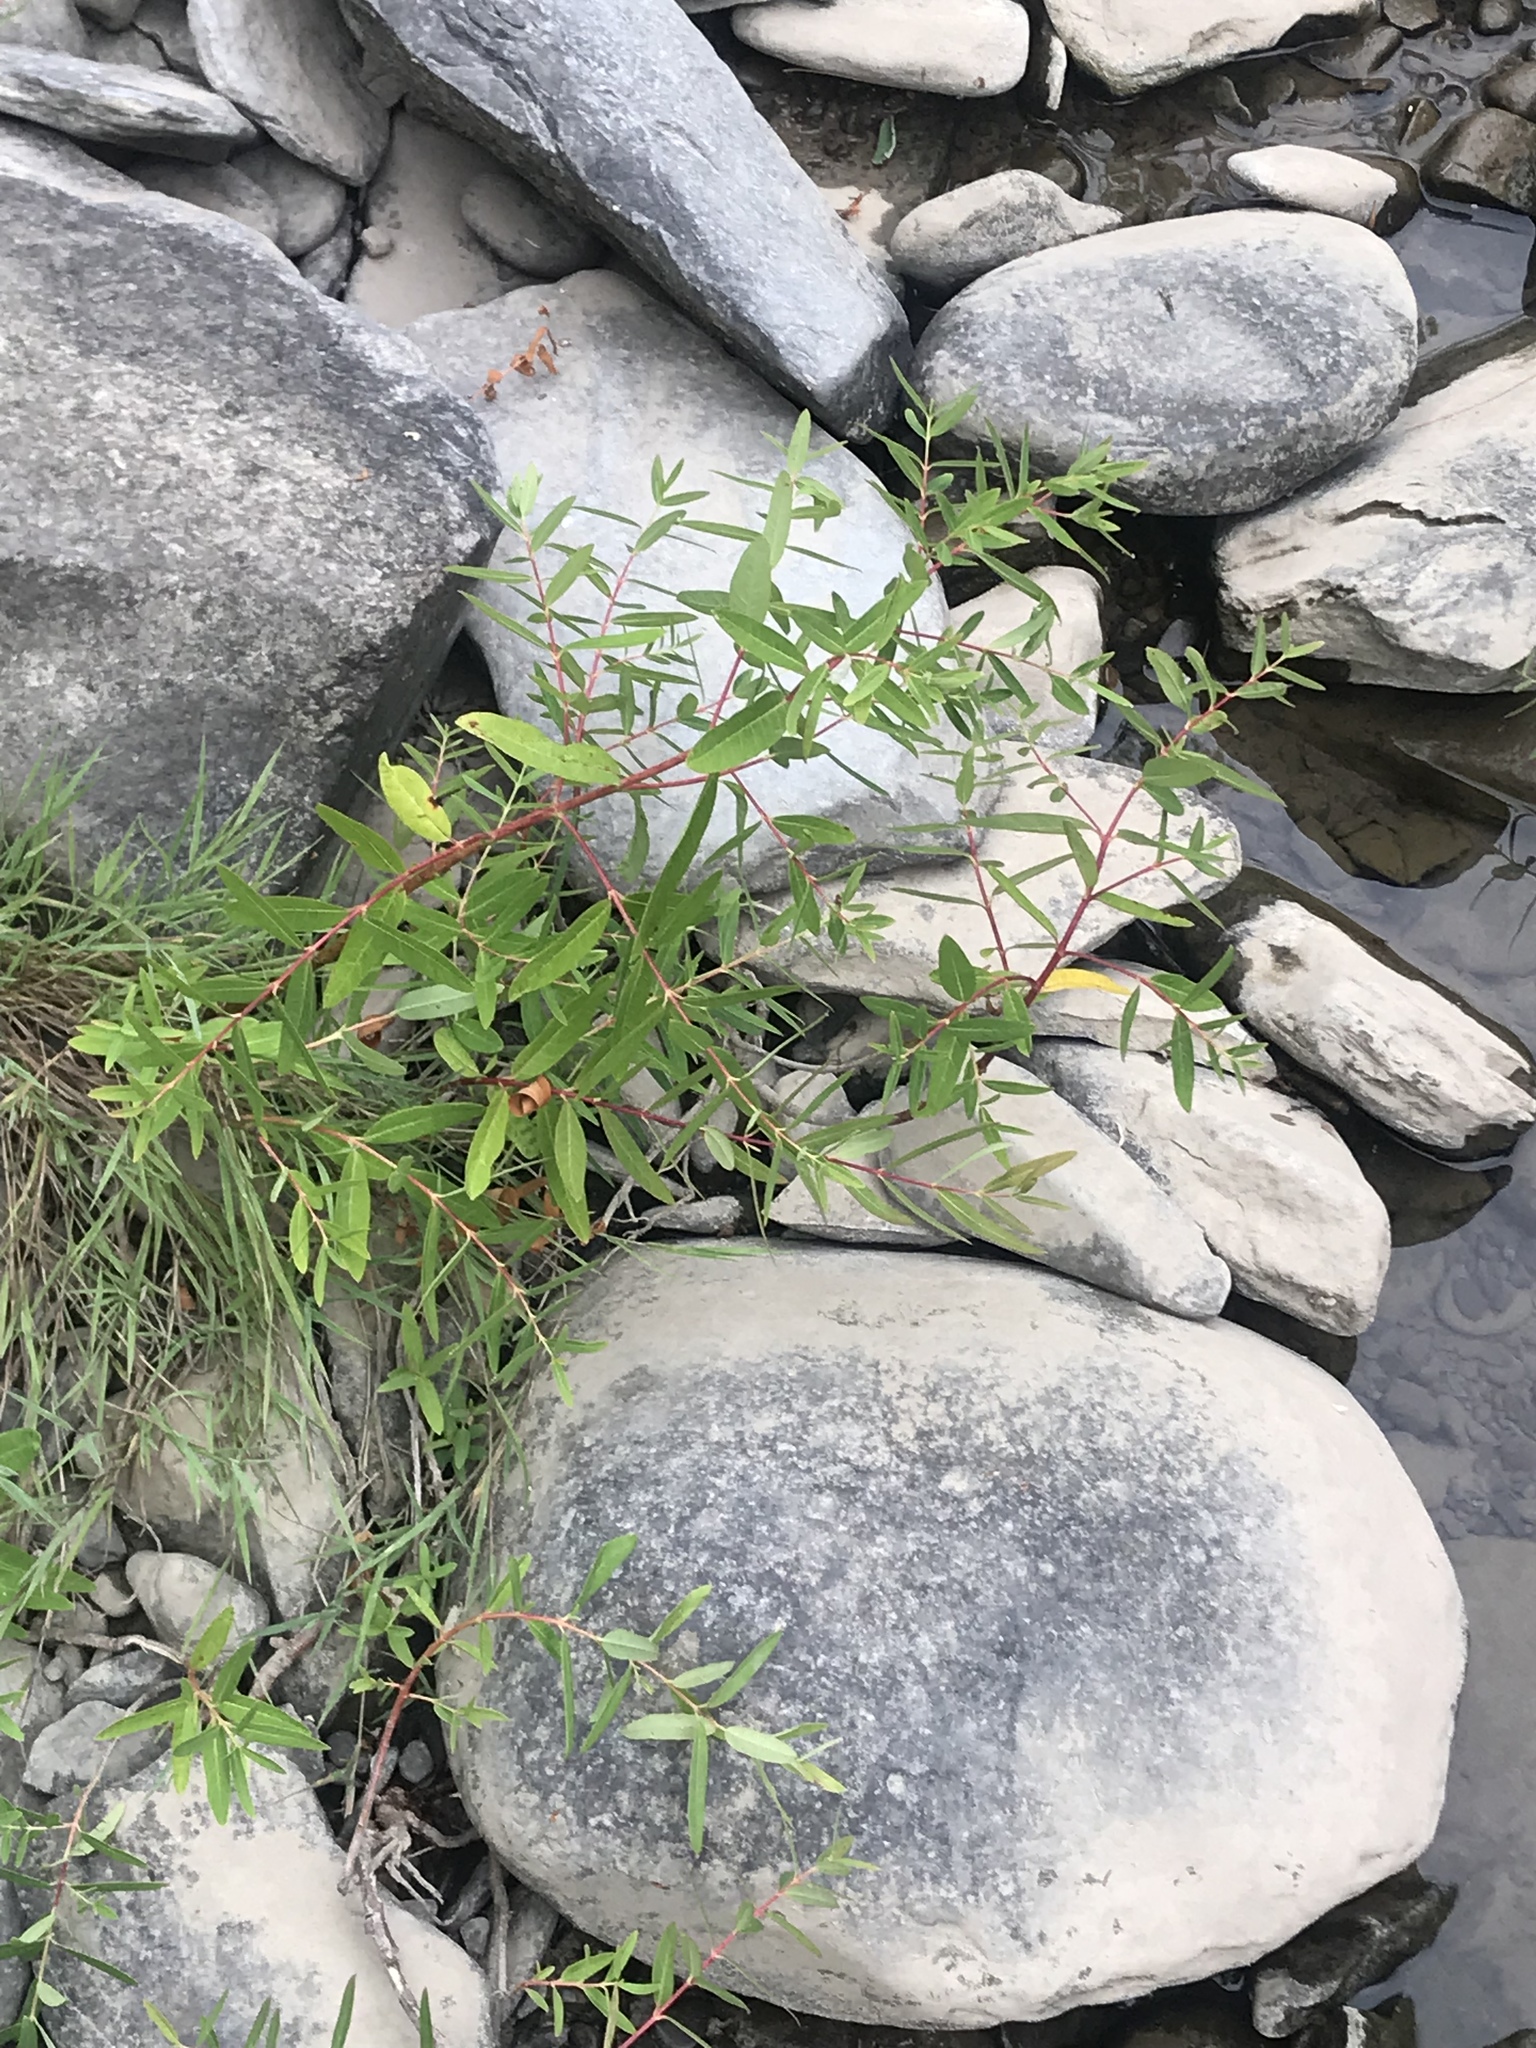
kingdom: Plantae
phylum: Tracheophyta
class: Magnoliopsida
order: Gentianales
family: Apocynaceae
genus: Apocynum
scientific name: Apocynum cannabinum
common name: Hemp dogbane
